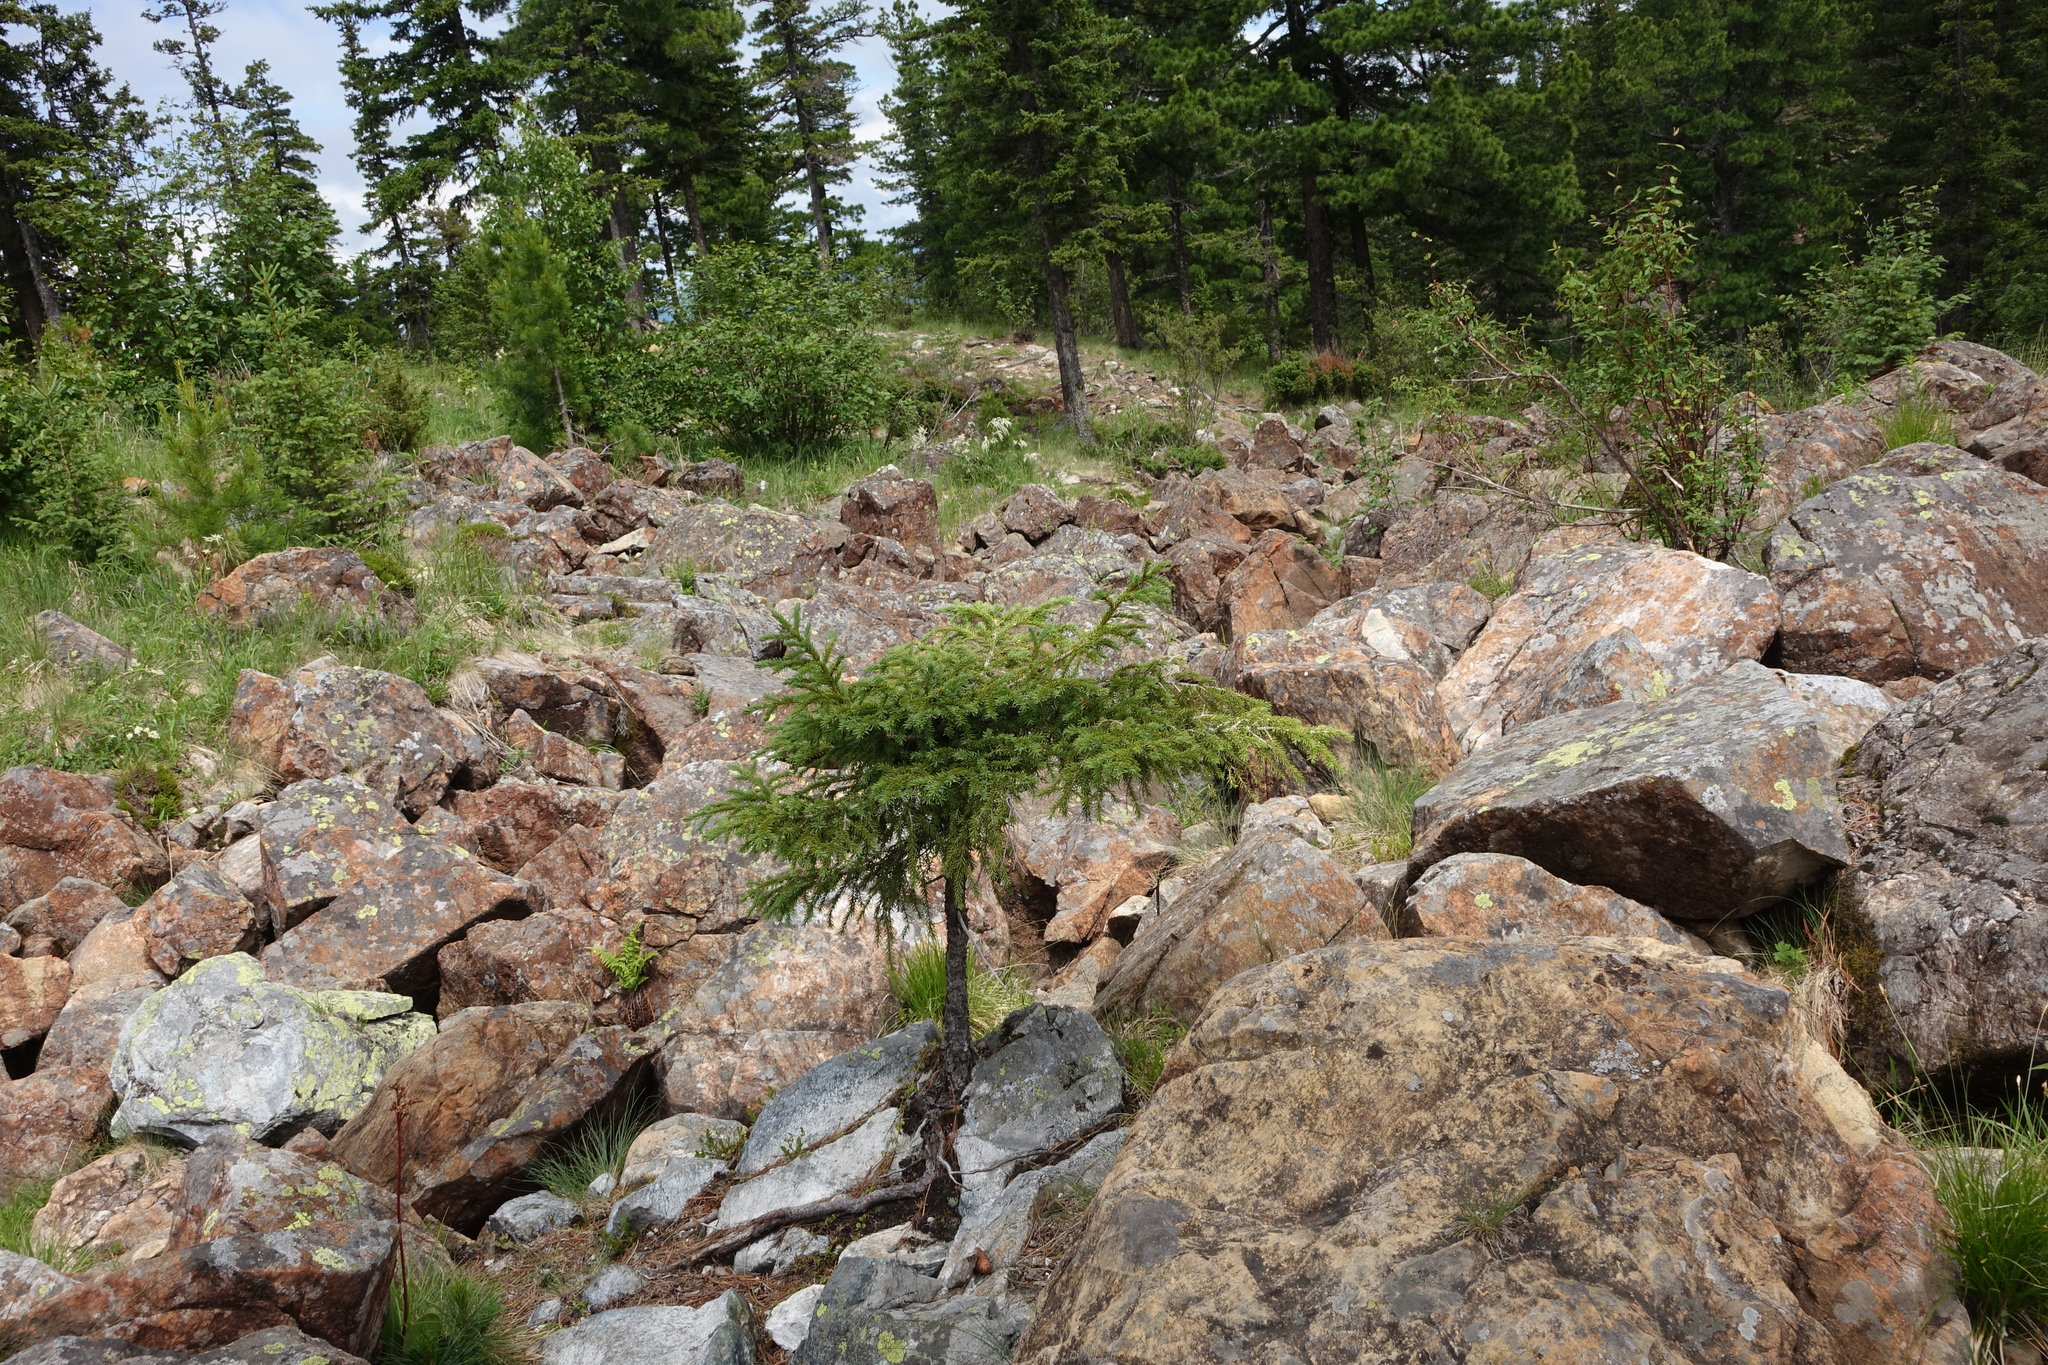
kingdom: Plantae
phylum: Tracheophyta
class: Pinopsida
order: Pinales
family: Pinaceae
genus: Picea
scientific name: Picea obovata
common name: Siberian spruce
